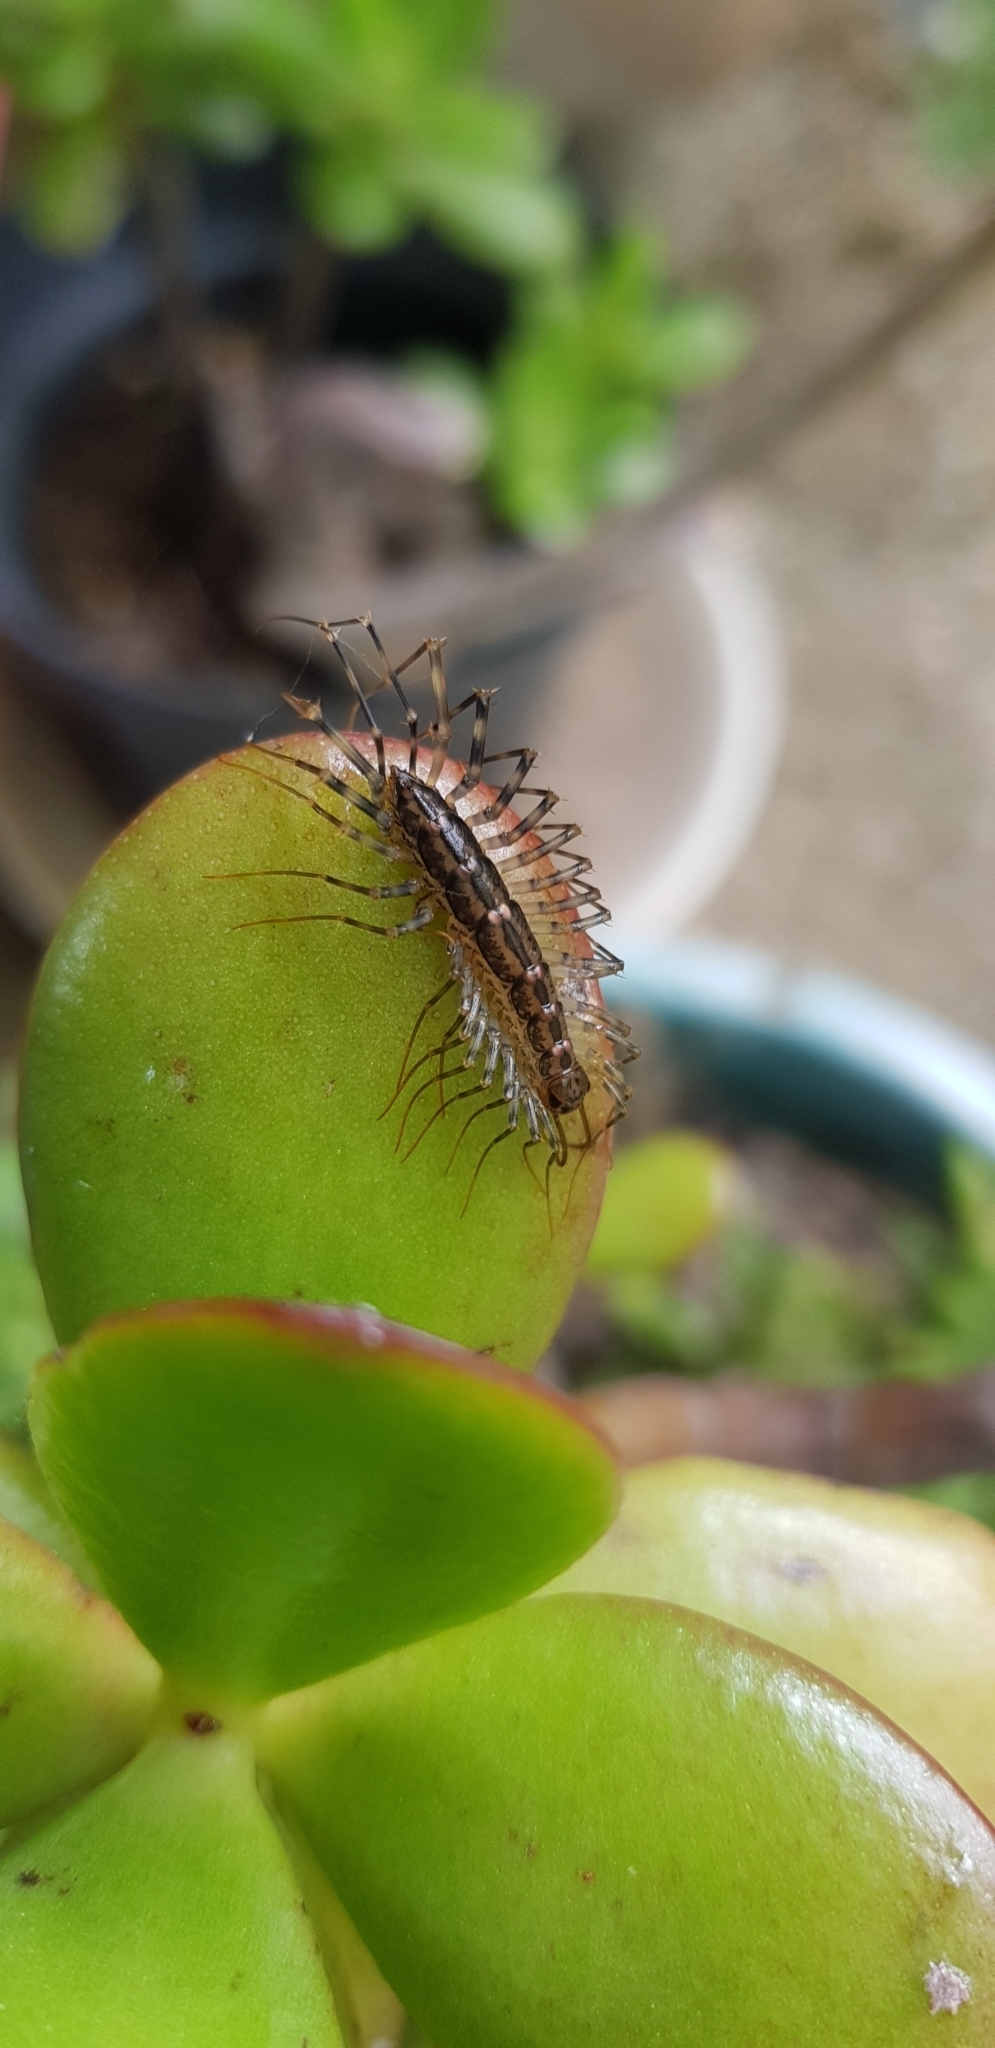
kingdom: Animalia
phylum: Arthropoda
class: Chilopoda
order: Scutigeromorpha
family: Scutigeridae
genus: Scutigera
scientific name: Scutigera coleoptrata
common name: House centipede
